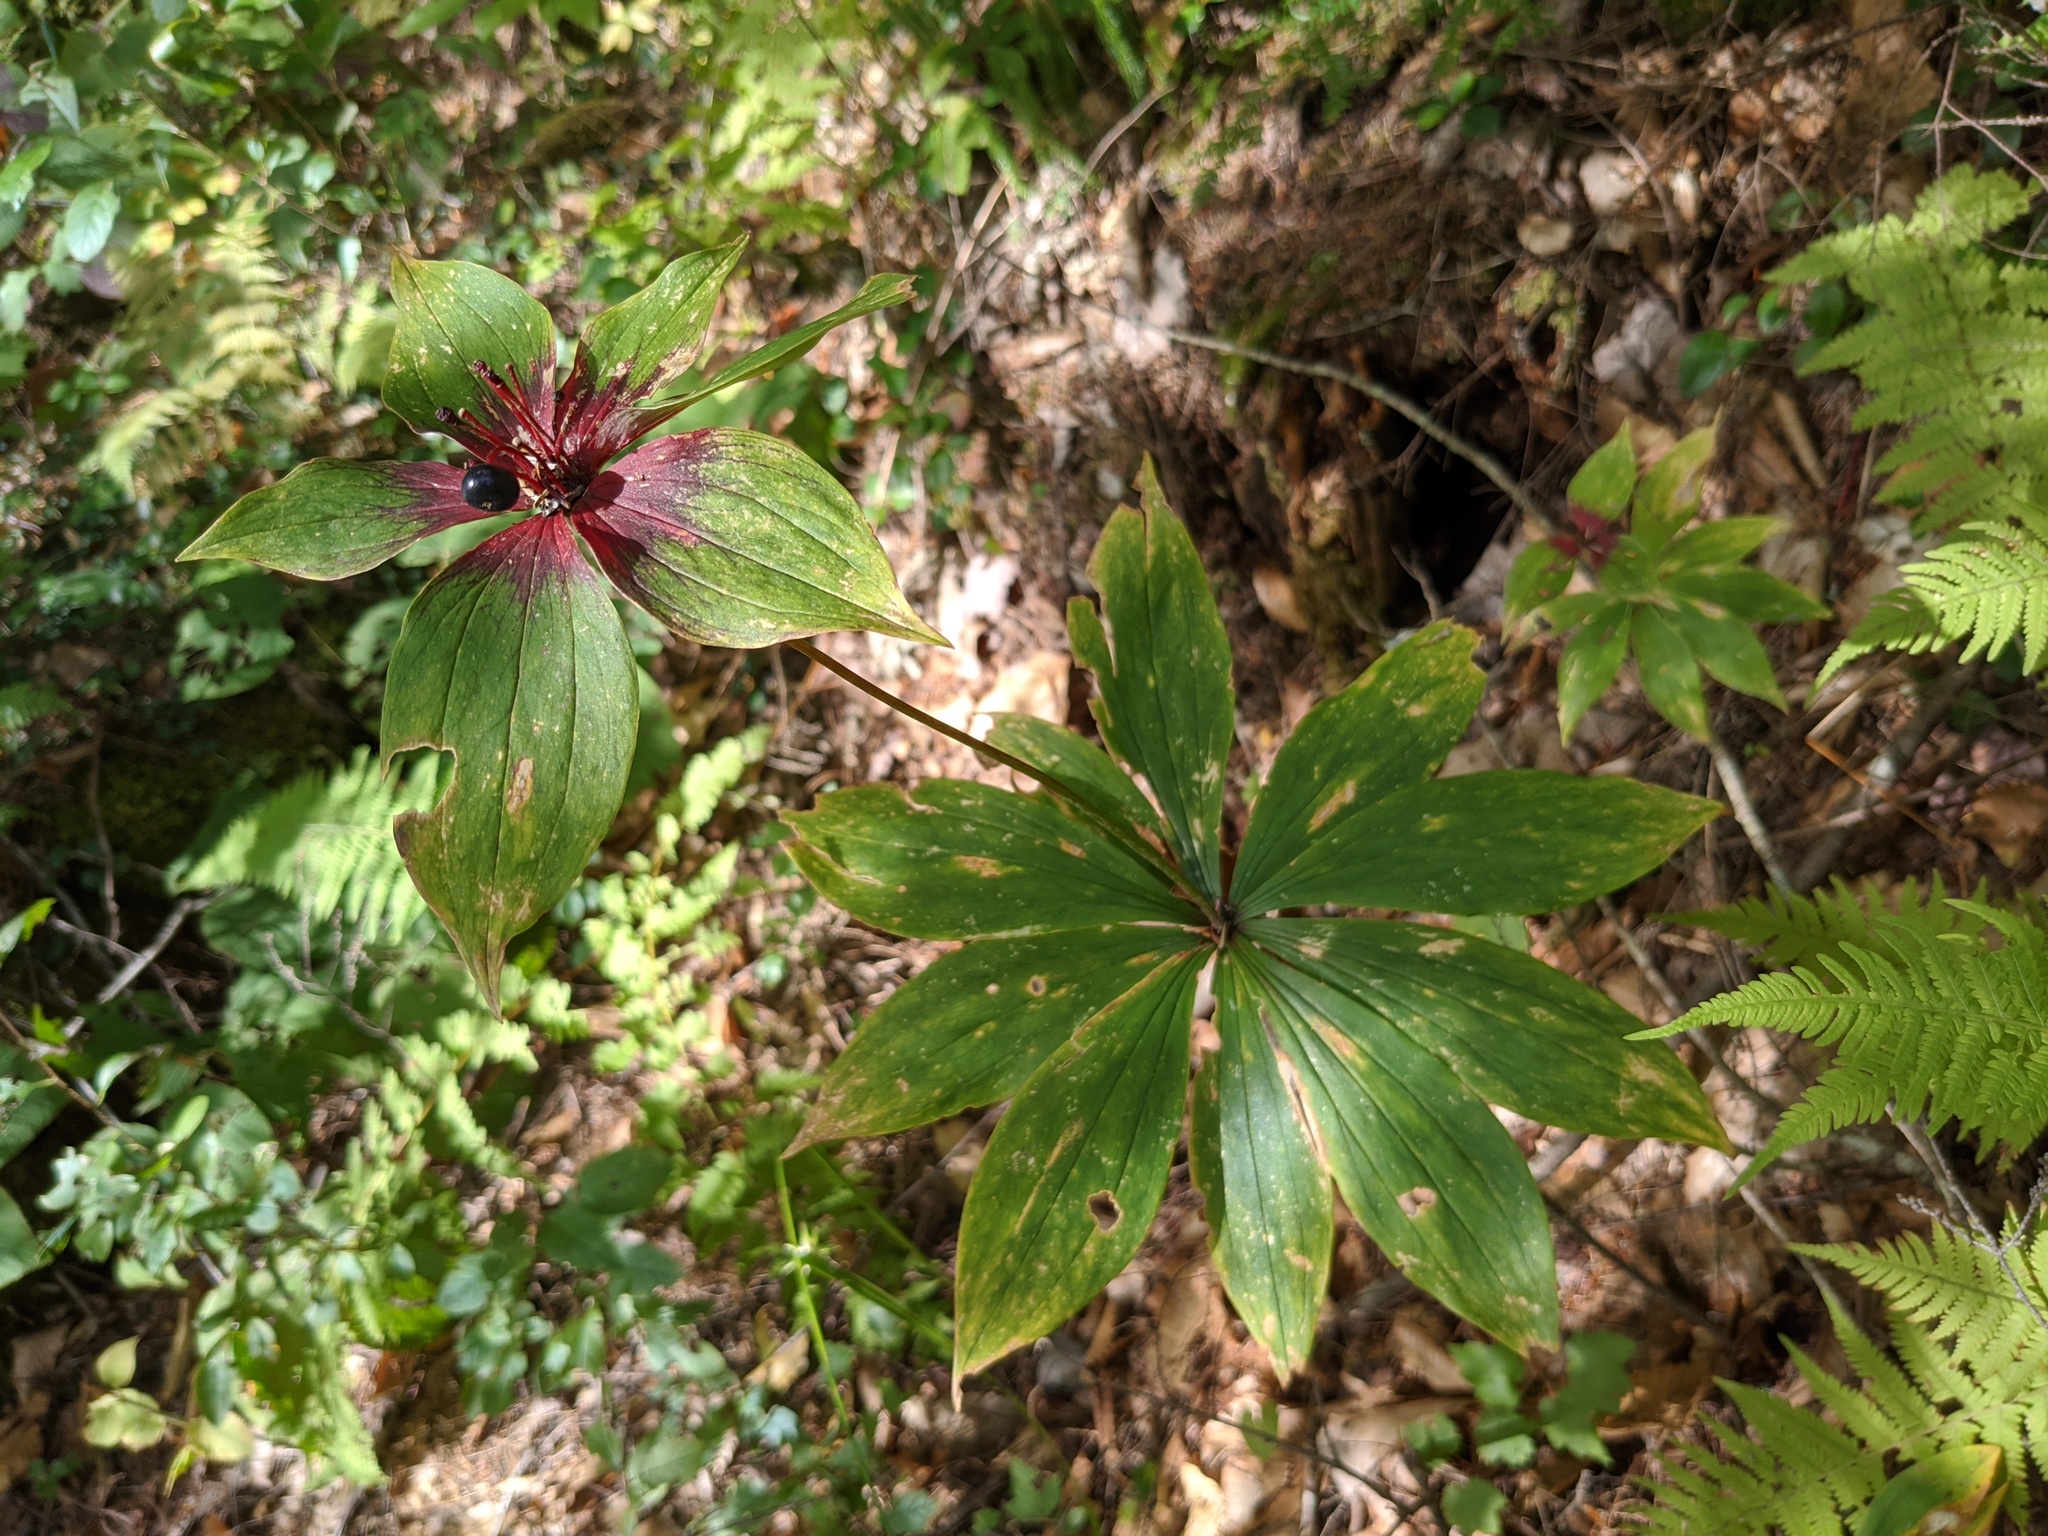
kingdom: Plantae
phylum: Tracheophyta
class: Liliopsida
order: Liliales
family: Liliaceae
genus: Medeola
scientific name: Medeola virginiana
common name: Indian cucumber-root
